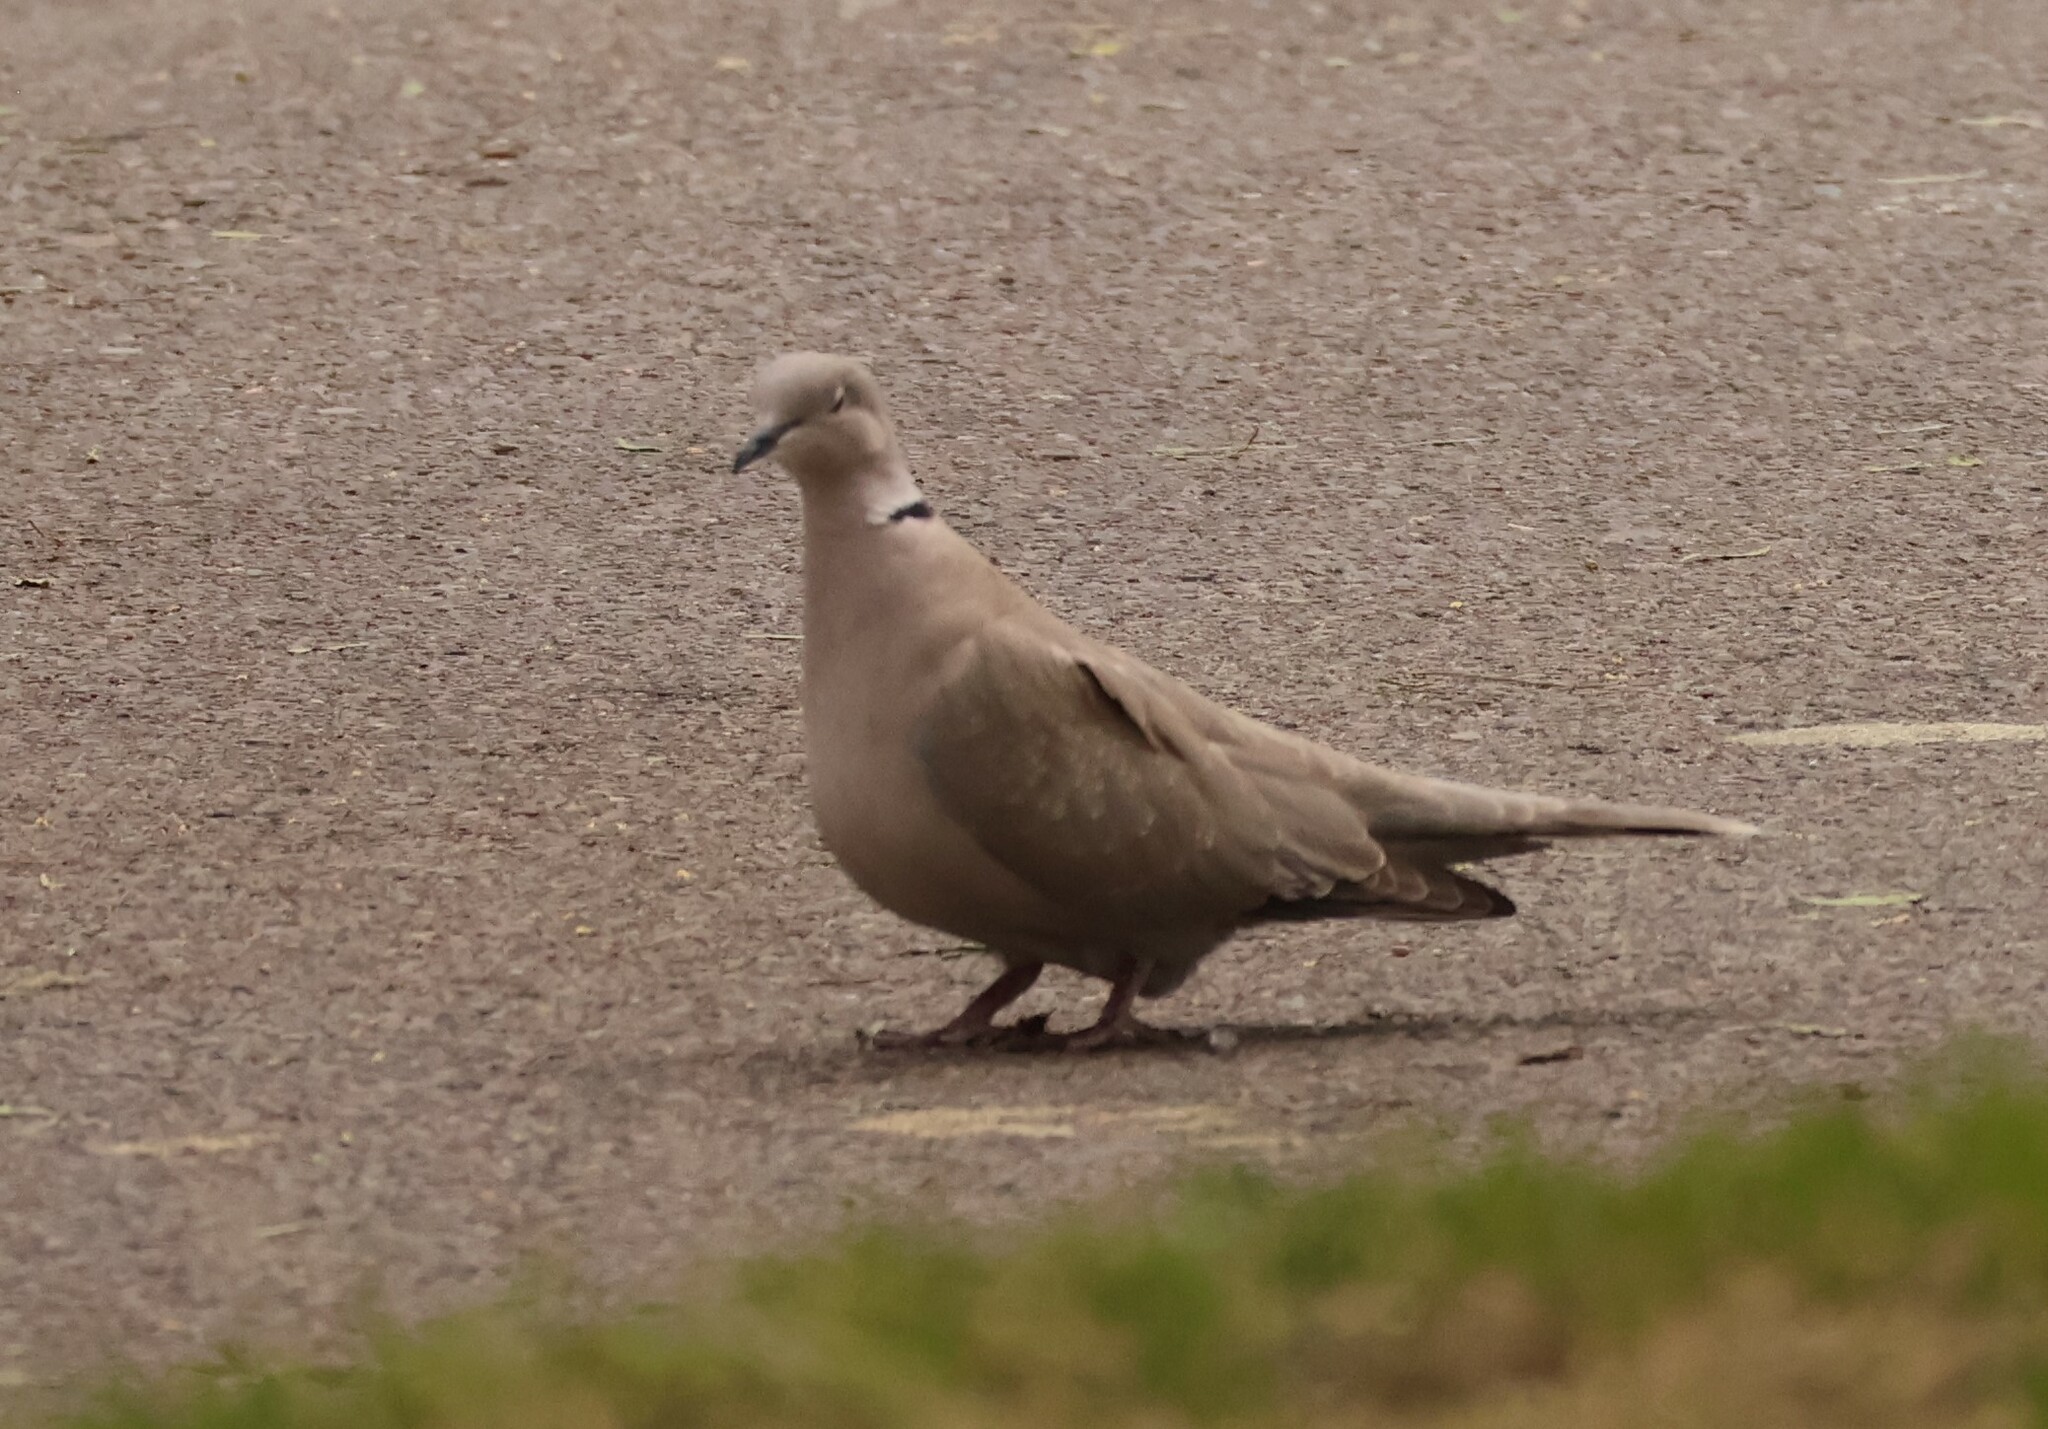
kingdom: Animalia
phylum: Chordata
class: Aves
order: Columbiformes
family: Columbidae
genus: Streptopelia
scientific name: Streptopelia decaocto
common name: Eurasian collared dove
